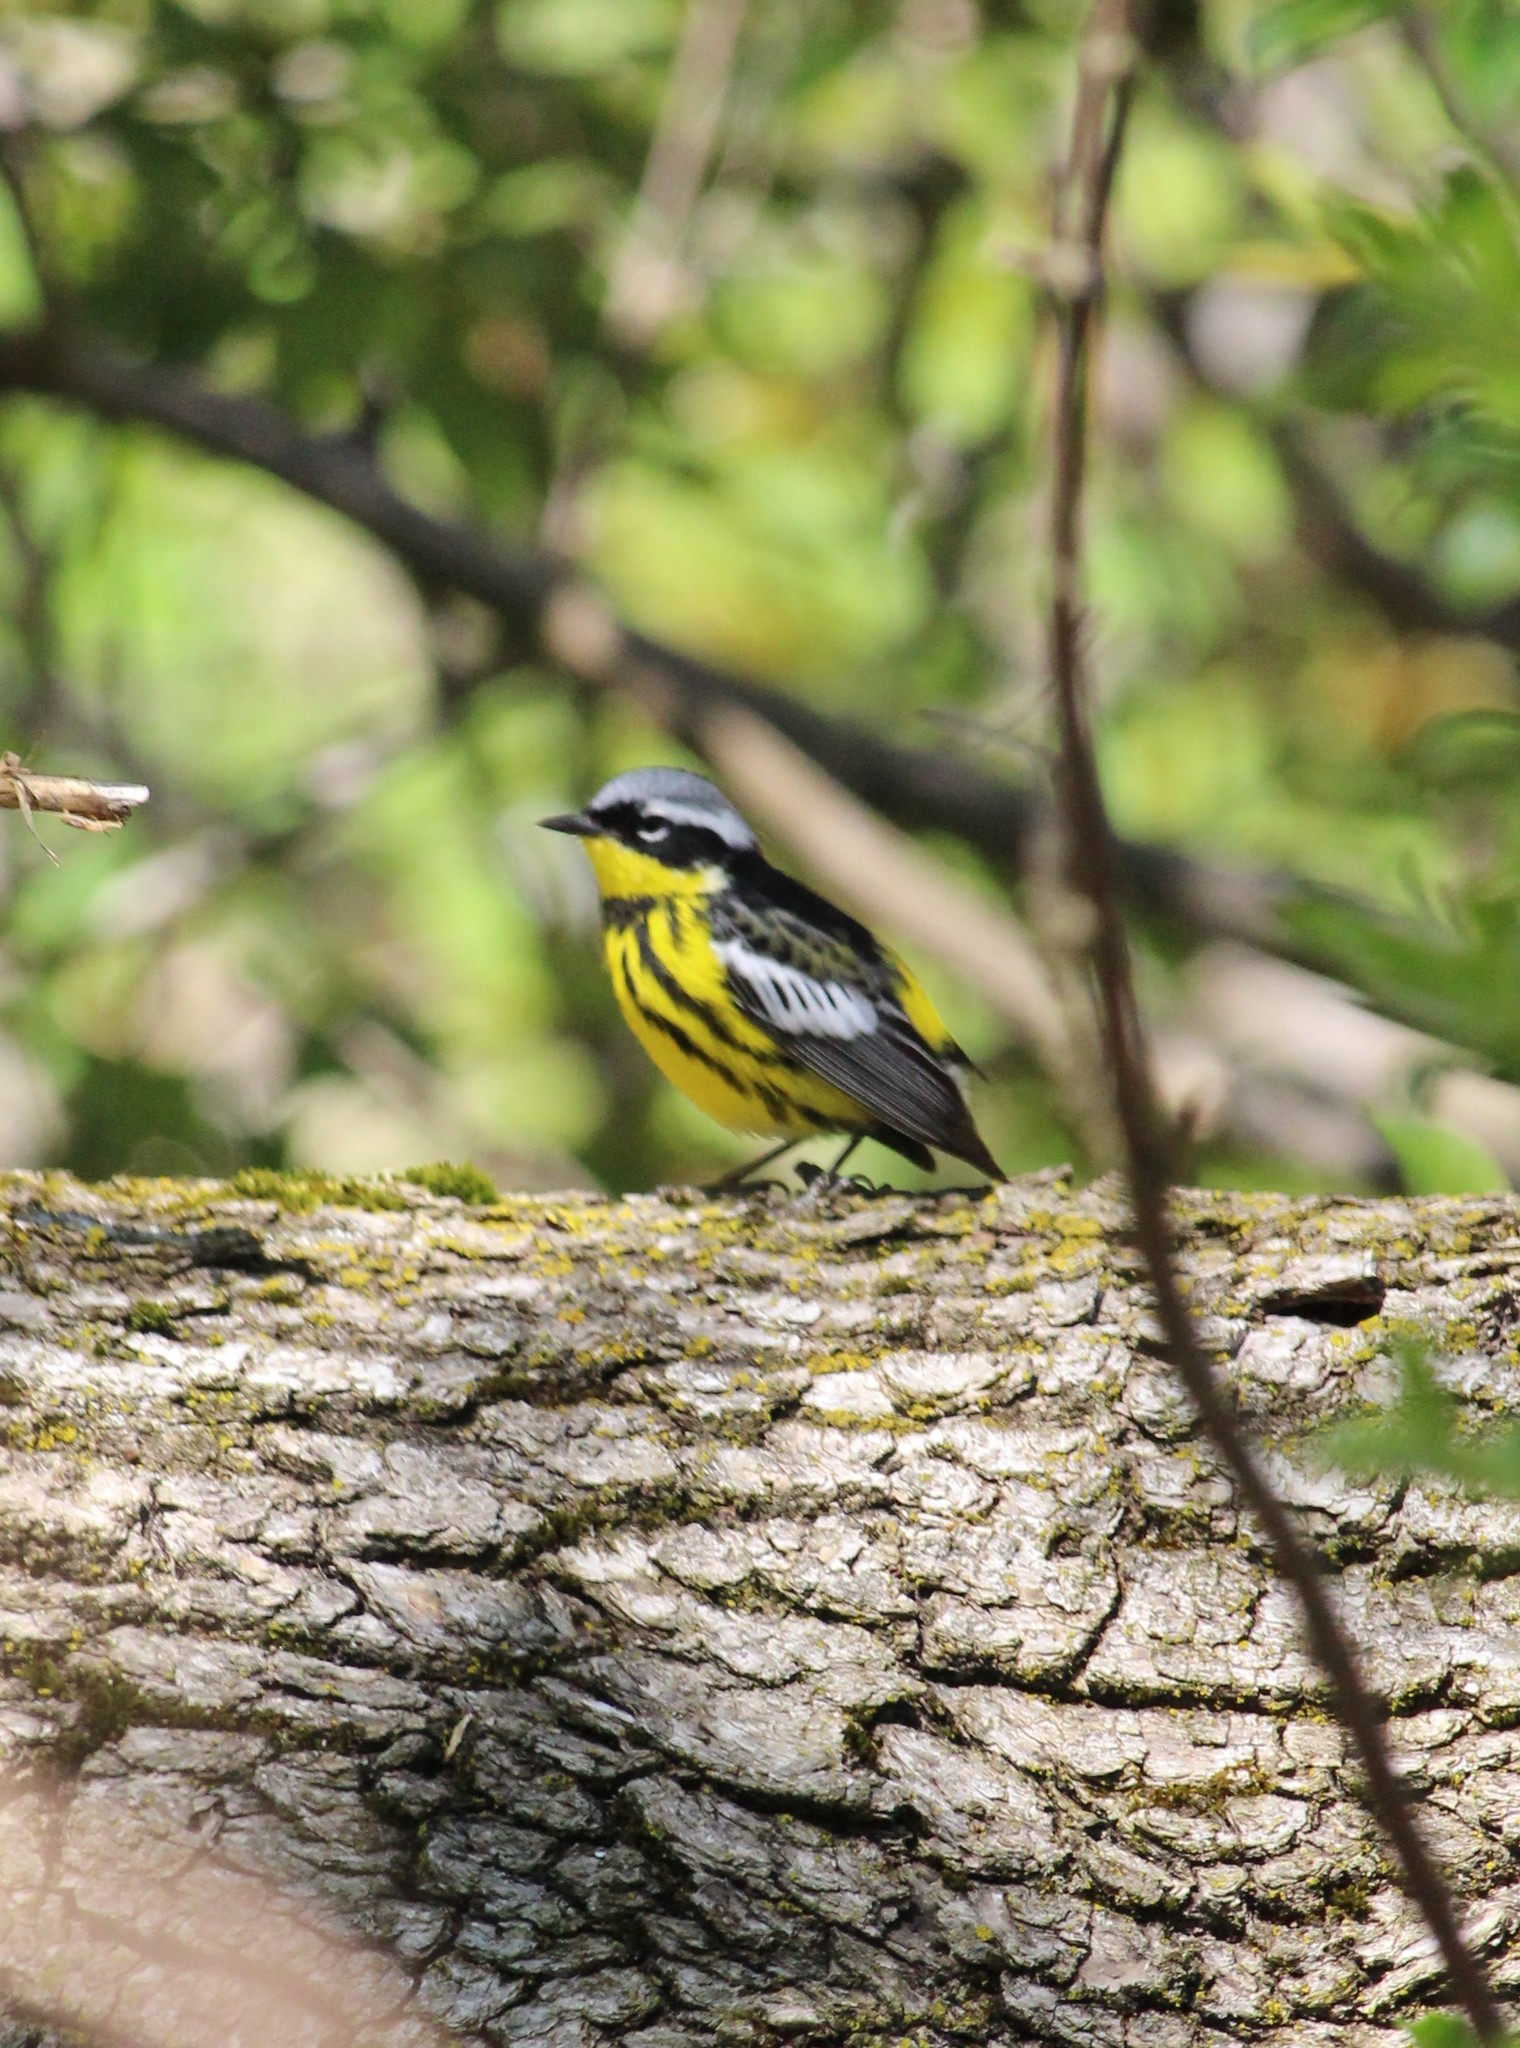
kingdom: Animalia
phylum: Chordata
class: Aves
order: Passeriformes
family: Parulidae
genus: Setophaga
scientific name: Setophaga magnolia
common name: Magnolia warbler
